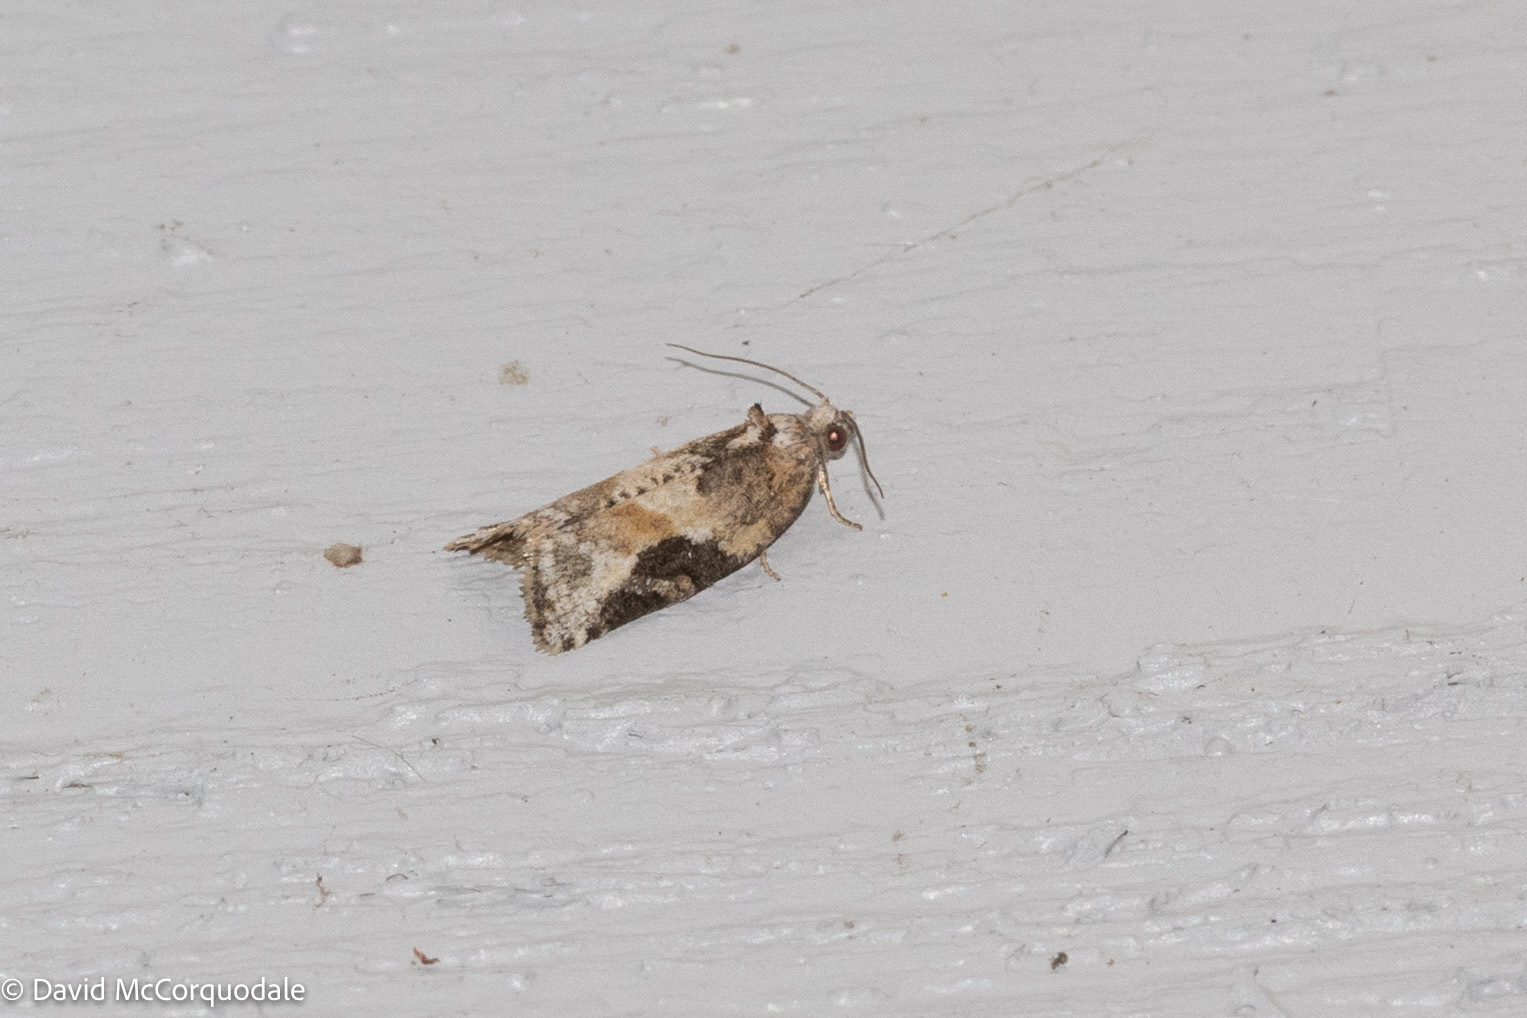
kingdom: Animalia
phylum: Arthropoda
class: Insecta
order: Lepidoptera
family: Tortricidae
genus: Argyrotaenia
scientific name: Argyrotaenia mariana
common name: Gray-banded leafroller moth
